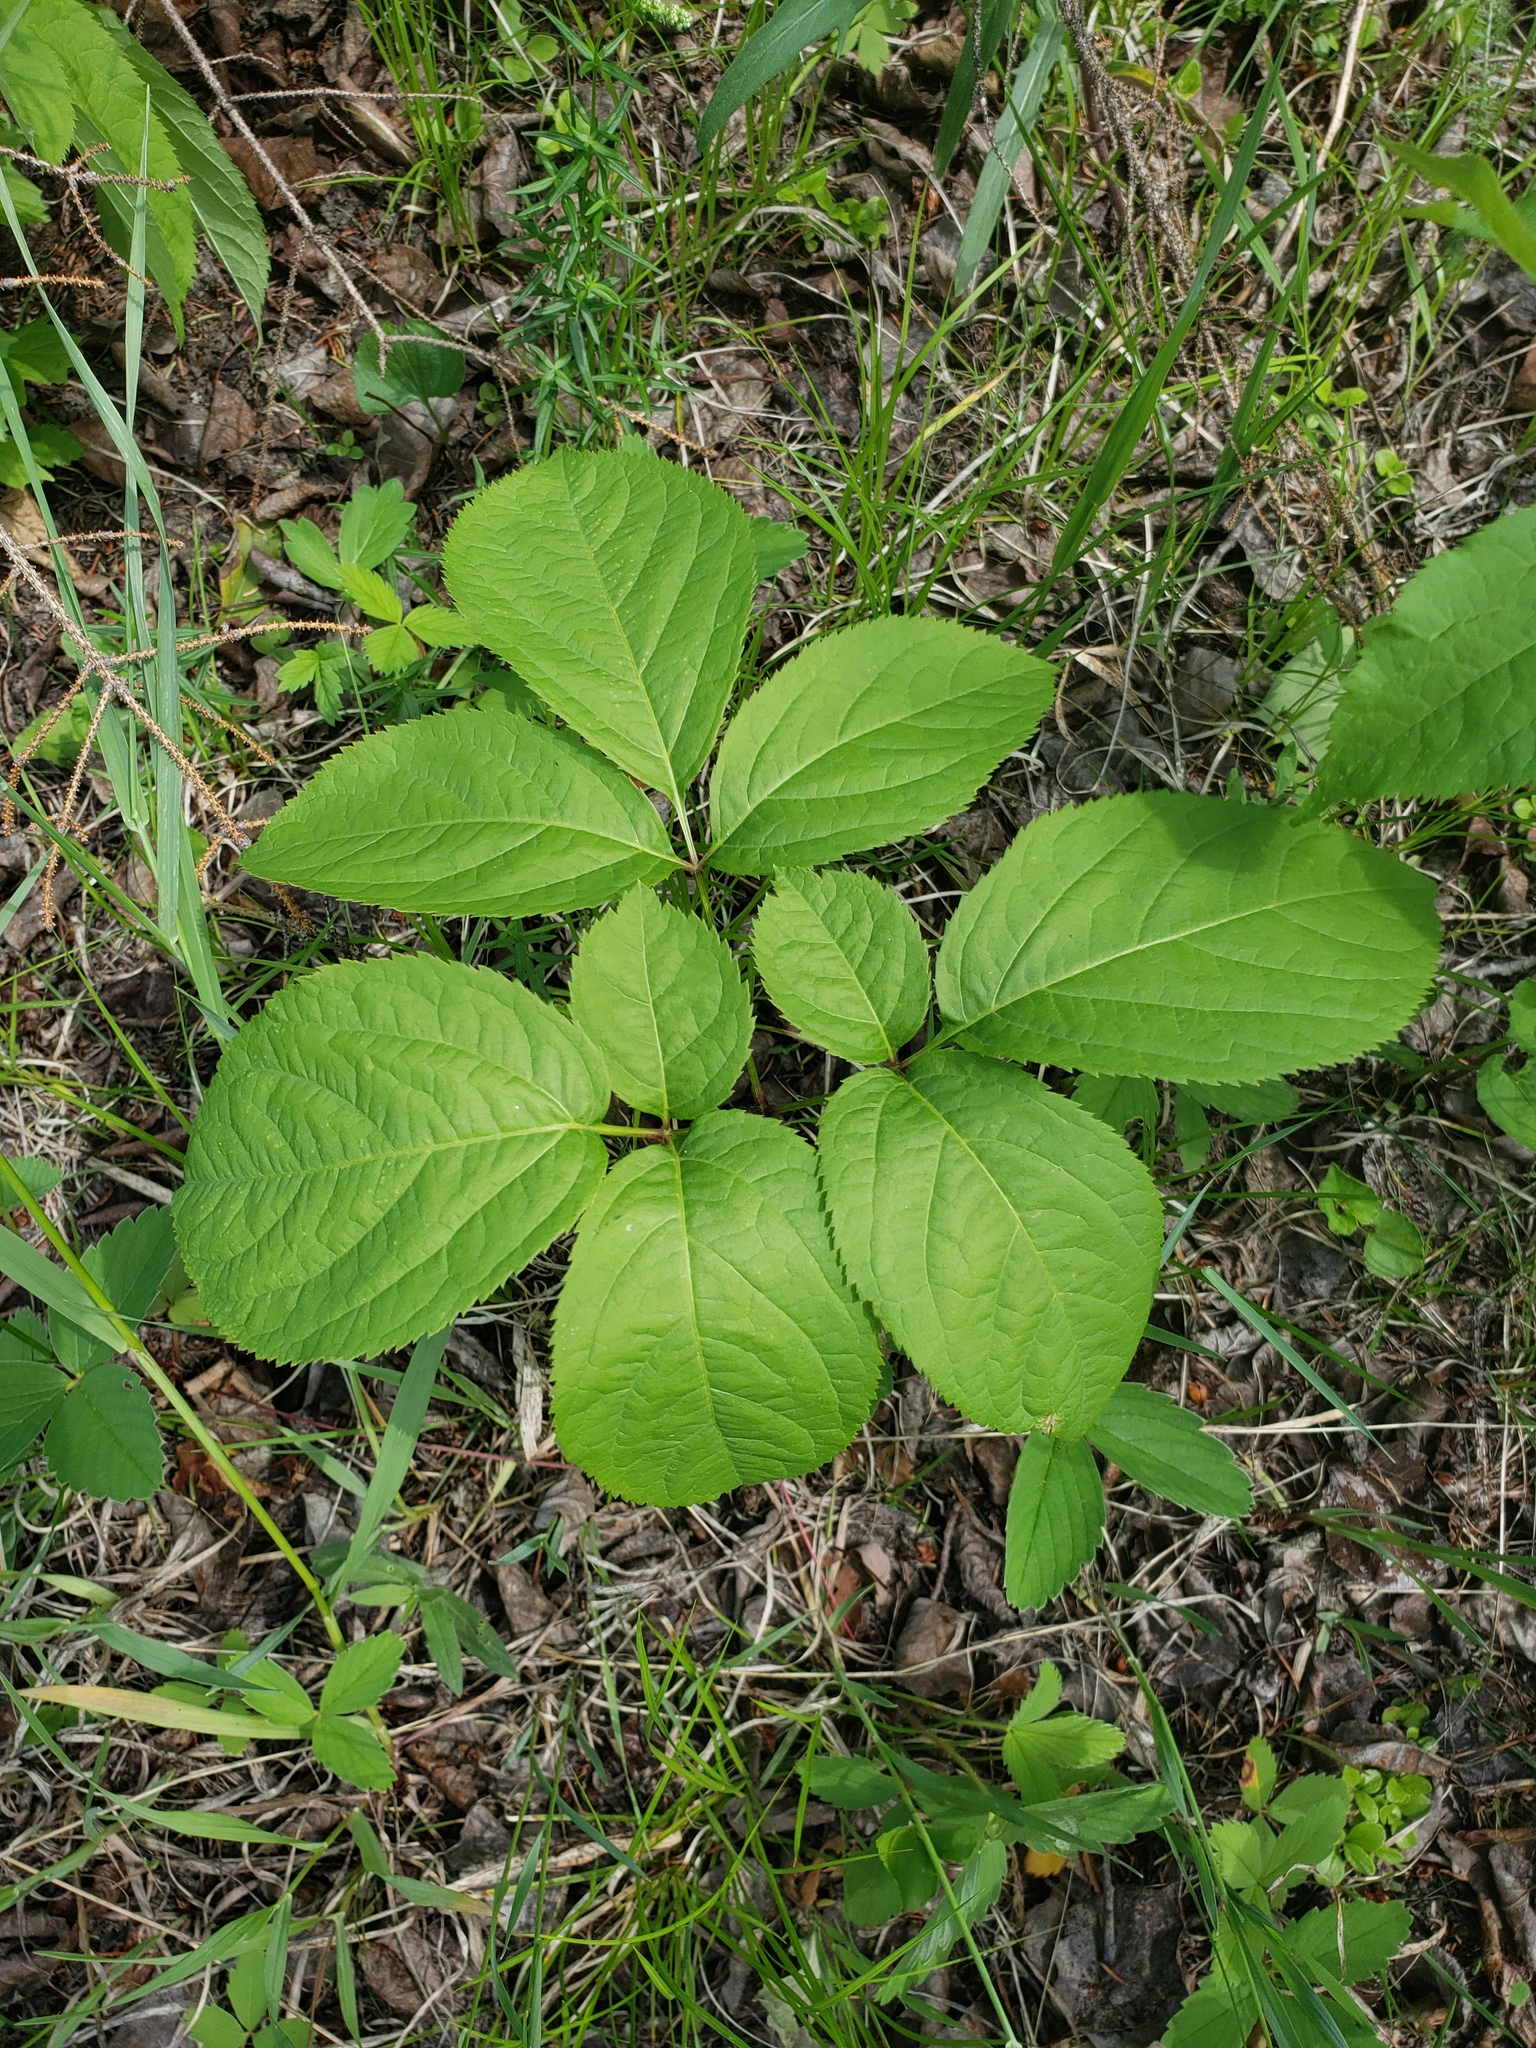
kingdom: Plantae
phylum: Tracheophyta
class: Magnoliopsida
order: Apiales
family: Araliaceae
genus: Aralia
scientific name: Aralia nudicaulis
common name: Wild sarsaparilla
